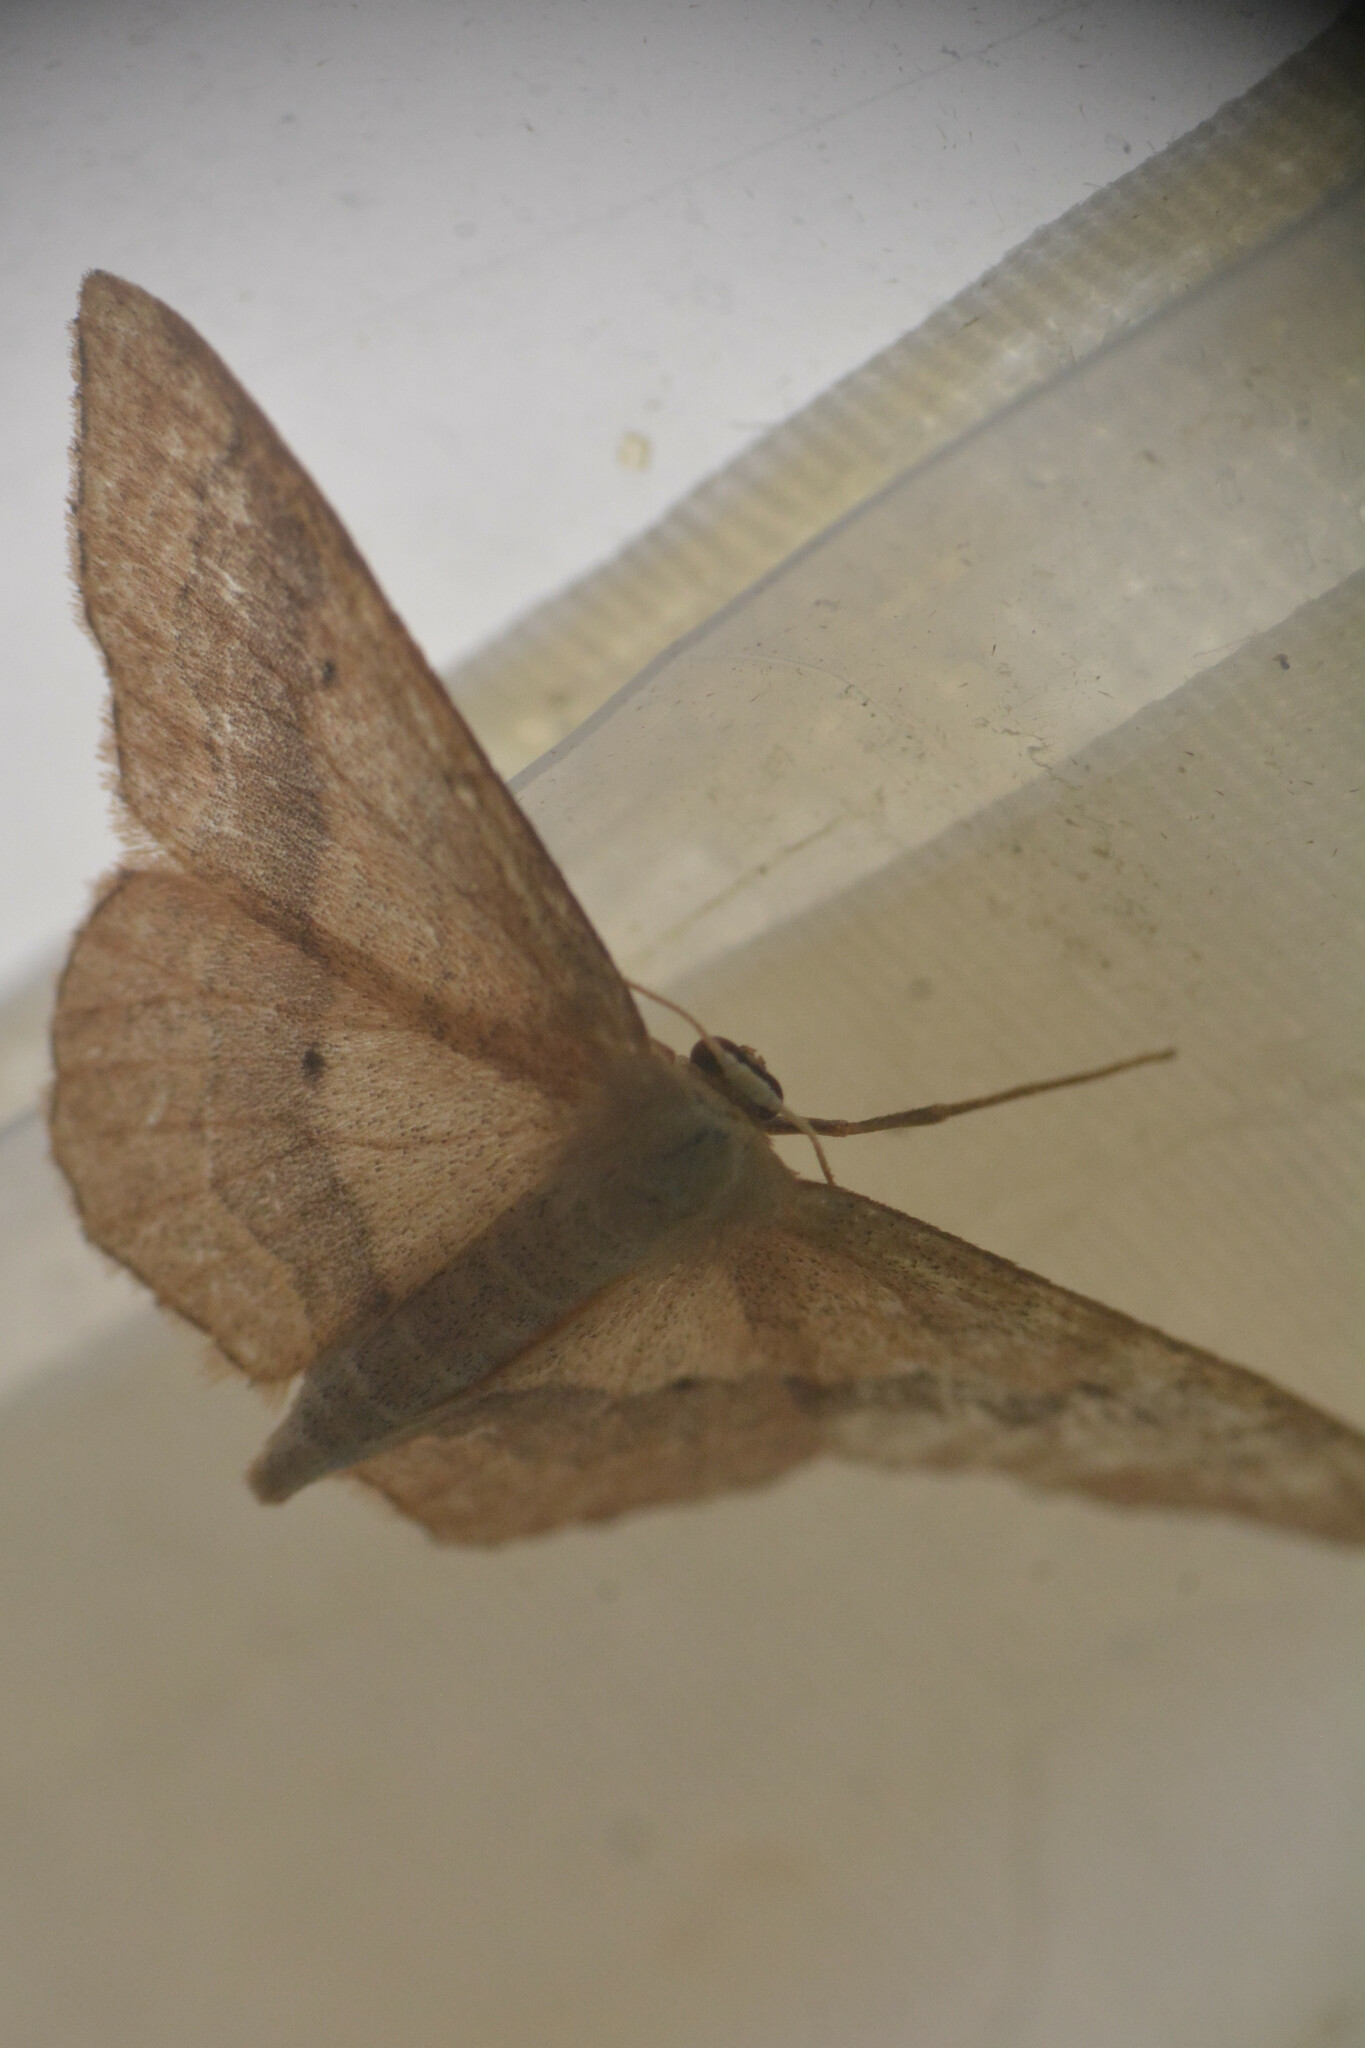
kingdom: Animalia
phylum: Arthropoda
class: Insecta
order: Lepidoptera
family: Geometridae
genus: Idaea
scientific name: Idaea aversata
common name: Riband wave
